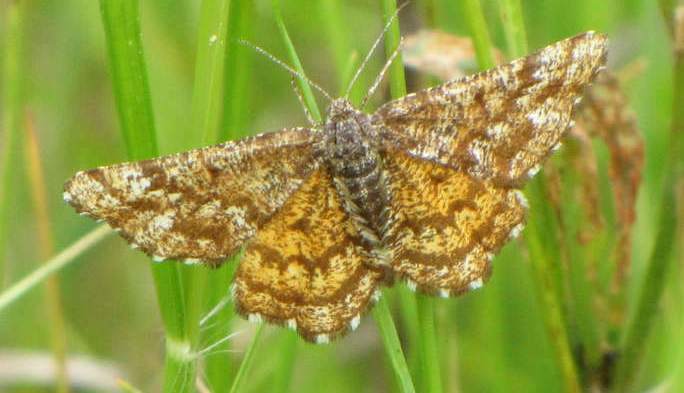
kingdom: Animalia
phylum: Arthropoda
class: Insecta
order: Lepidoptera
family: Geometridae
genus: Ematurga
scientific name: Ematurga amitaria
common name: Cranberry spanworm moth
